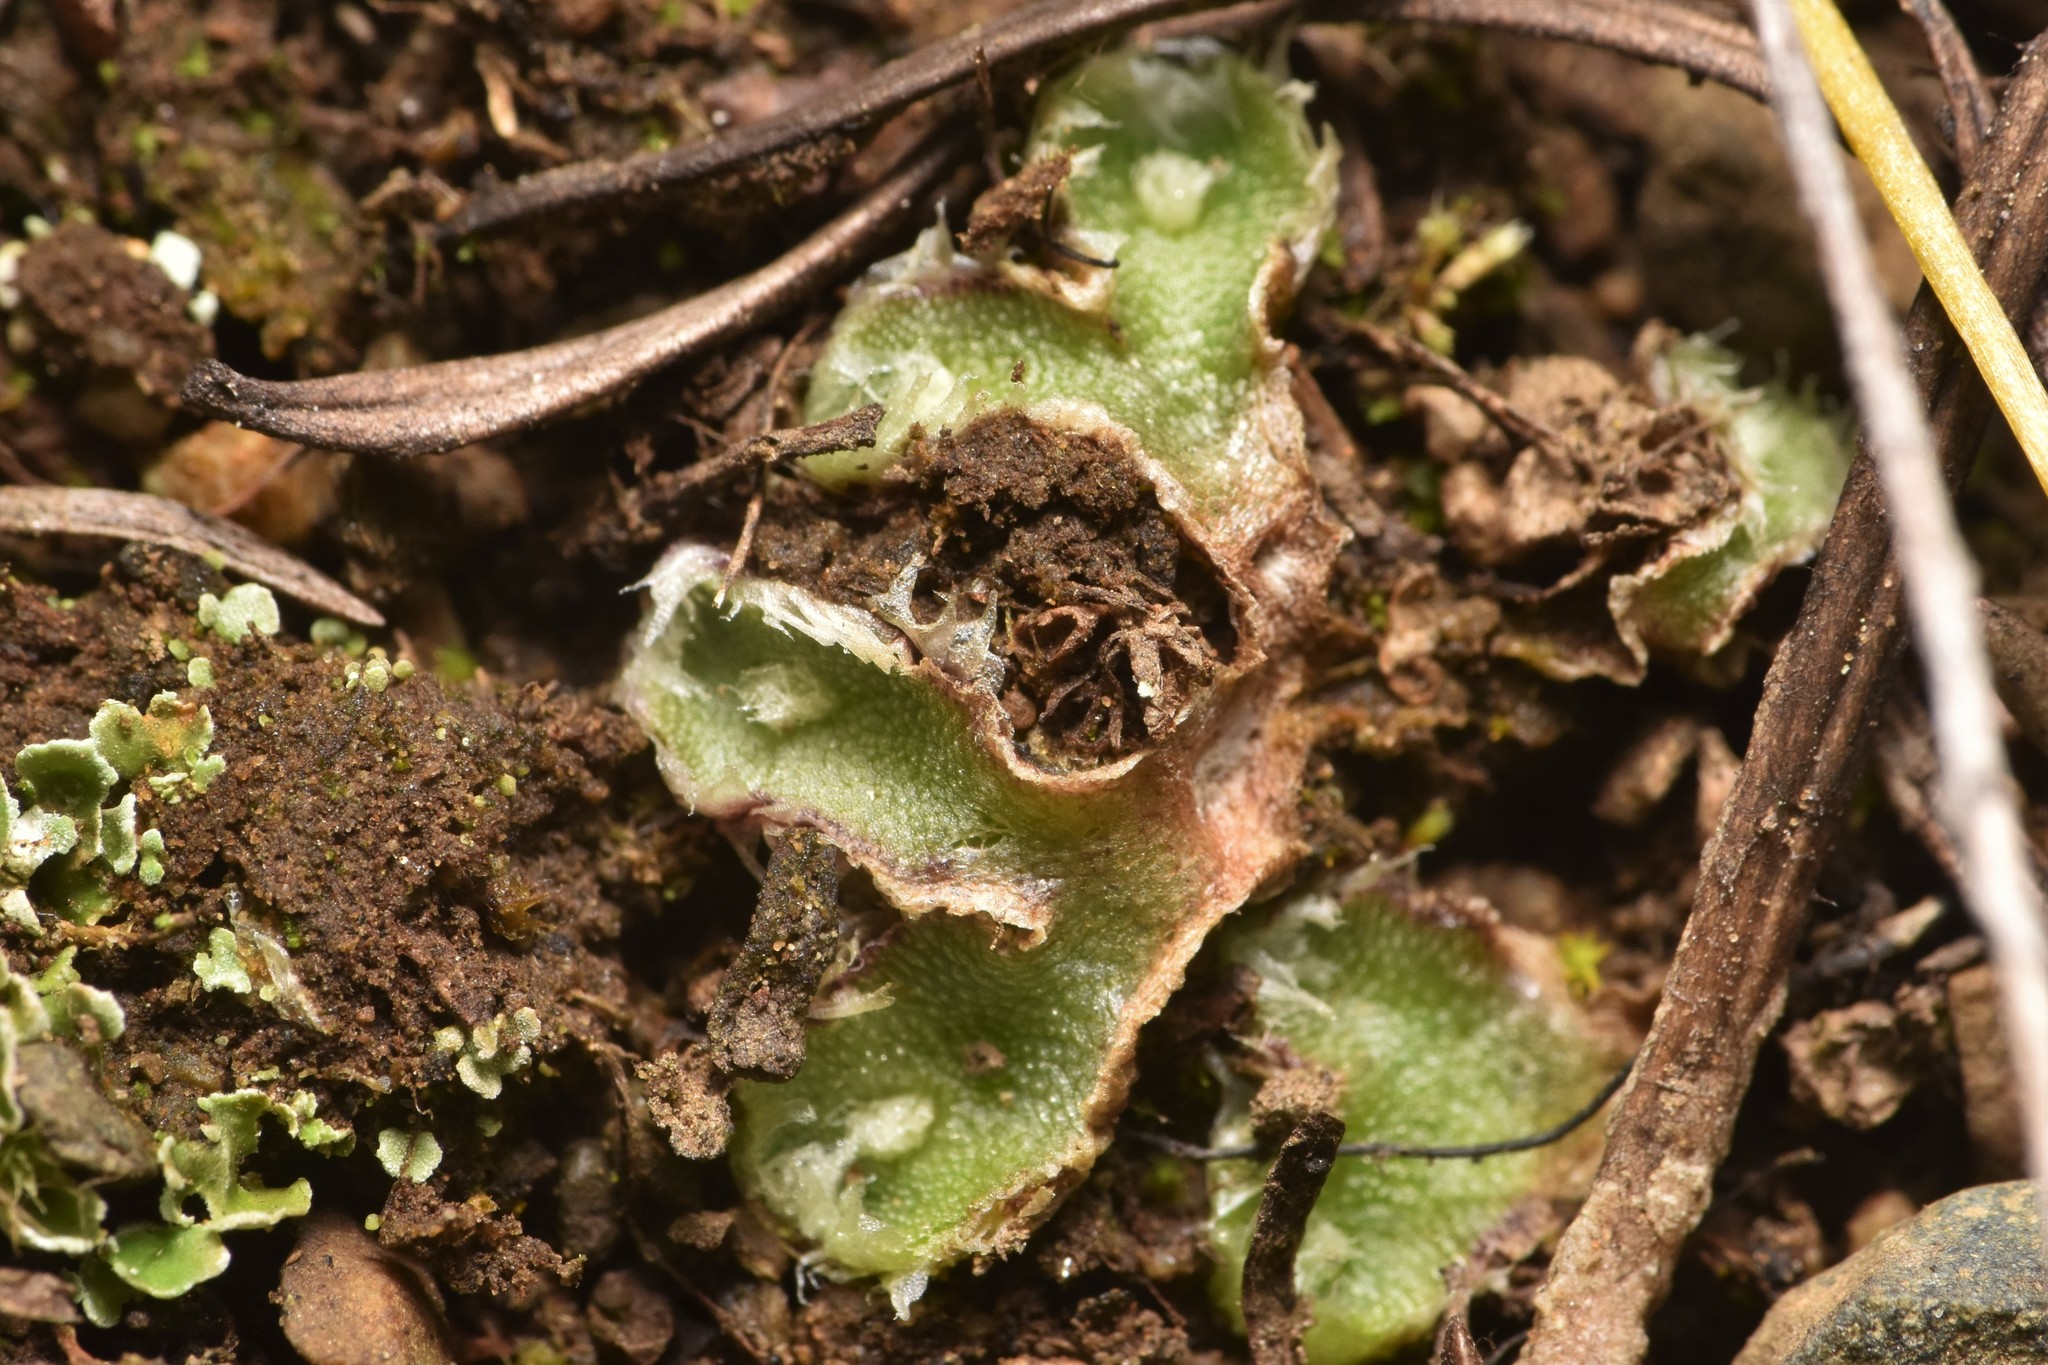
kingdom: Plantae
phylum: Marchantiophyta
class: Marchantiopsida
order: Marchantiales
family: Cleveaceae
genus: Clevea
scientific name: Clevea hyalina
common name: Hyaline liverwort
